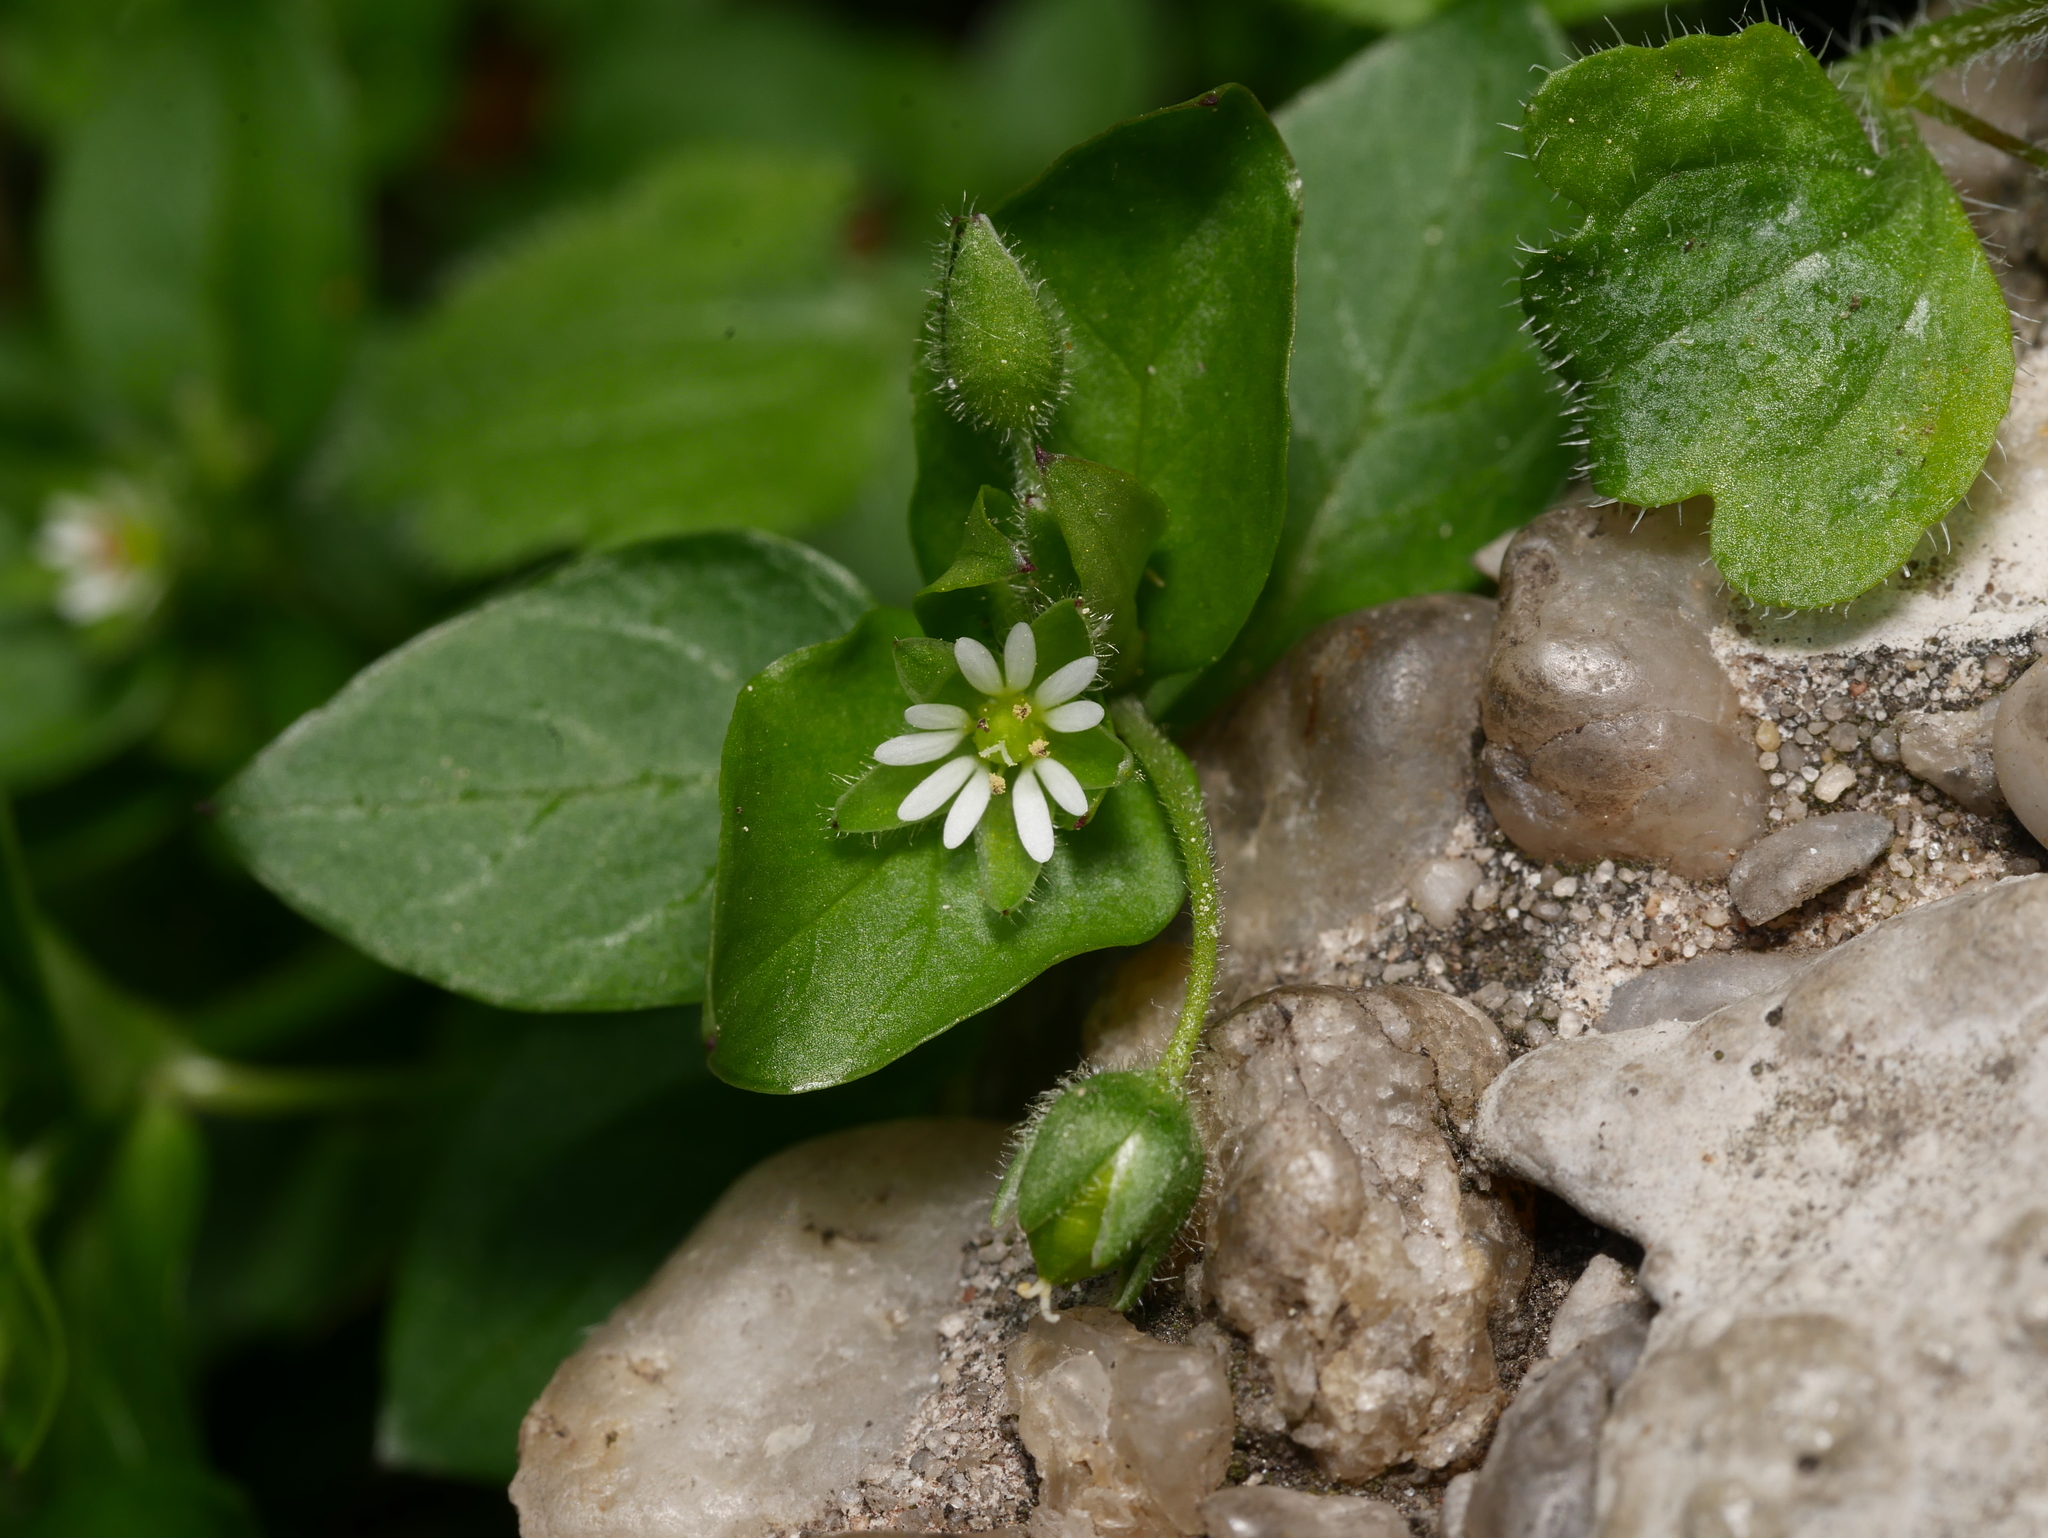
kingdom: Plantae
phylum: Tracheophyta
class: Magnoliopsida
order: Caryophyllales
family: Caryophyllaceae
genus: Stellaria
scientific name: Stellaria media
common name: Common chickweed
